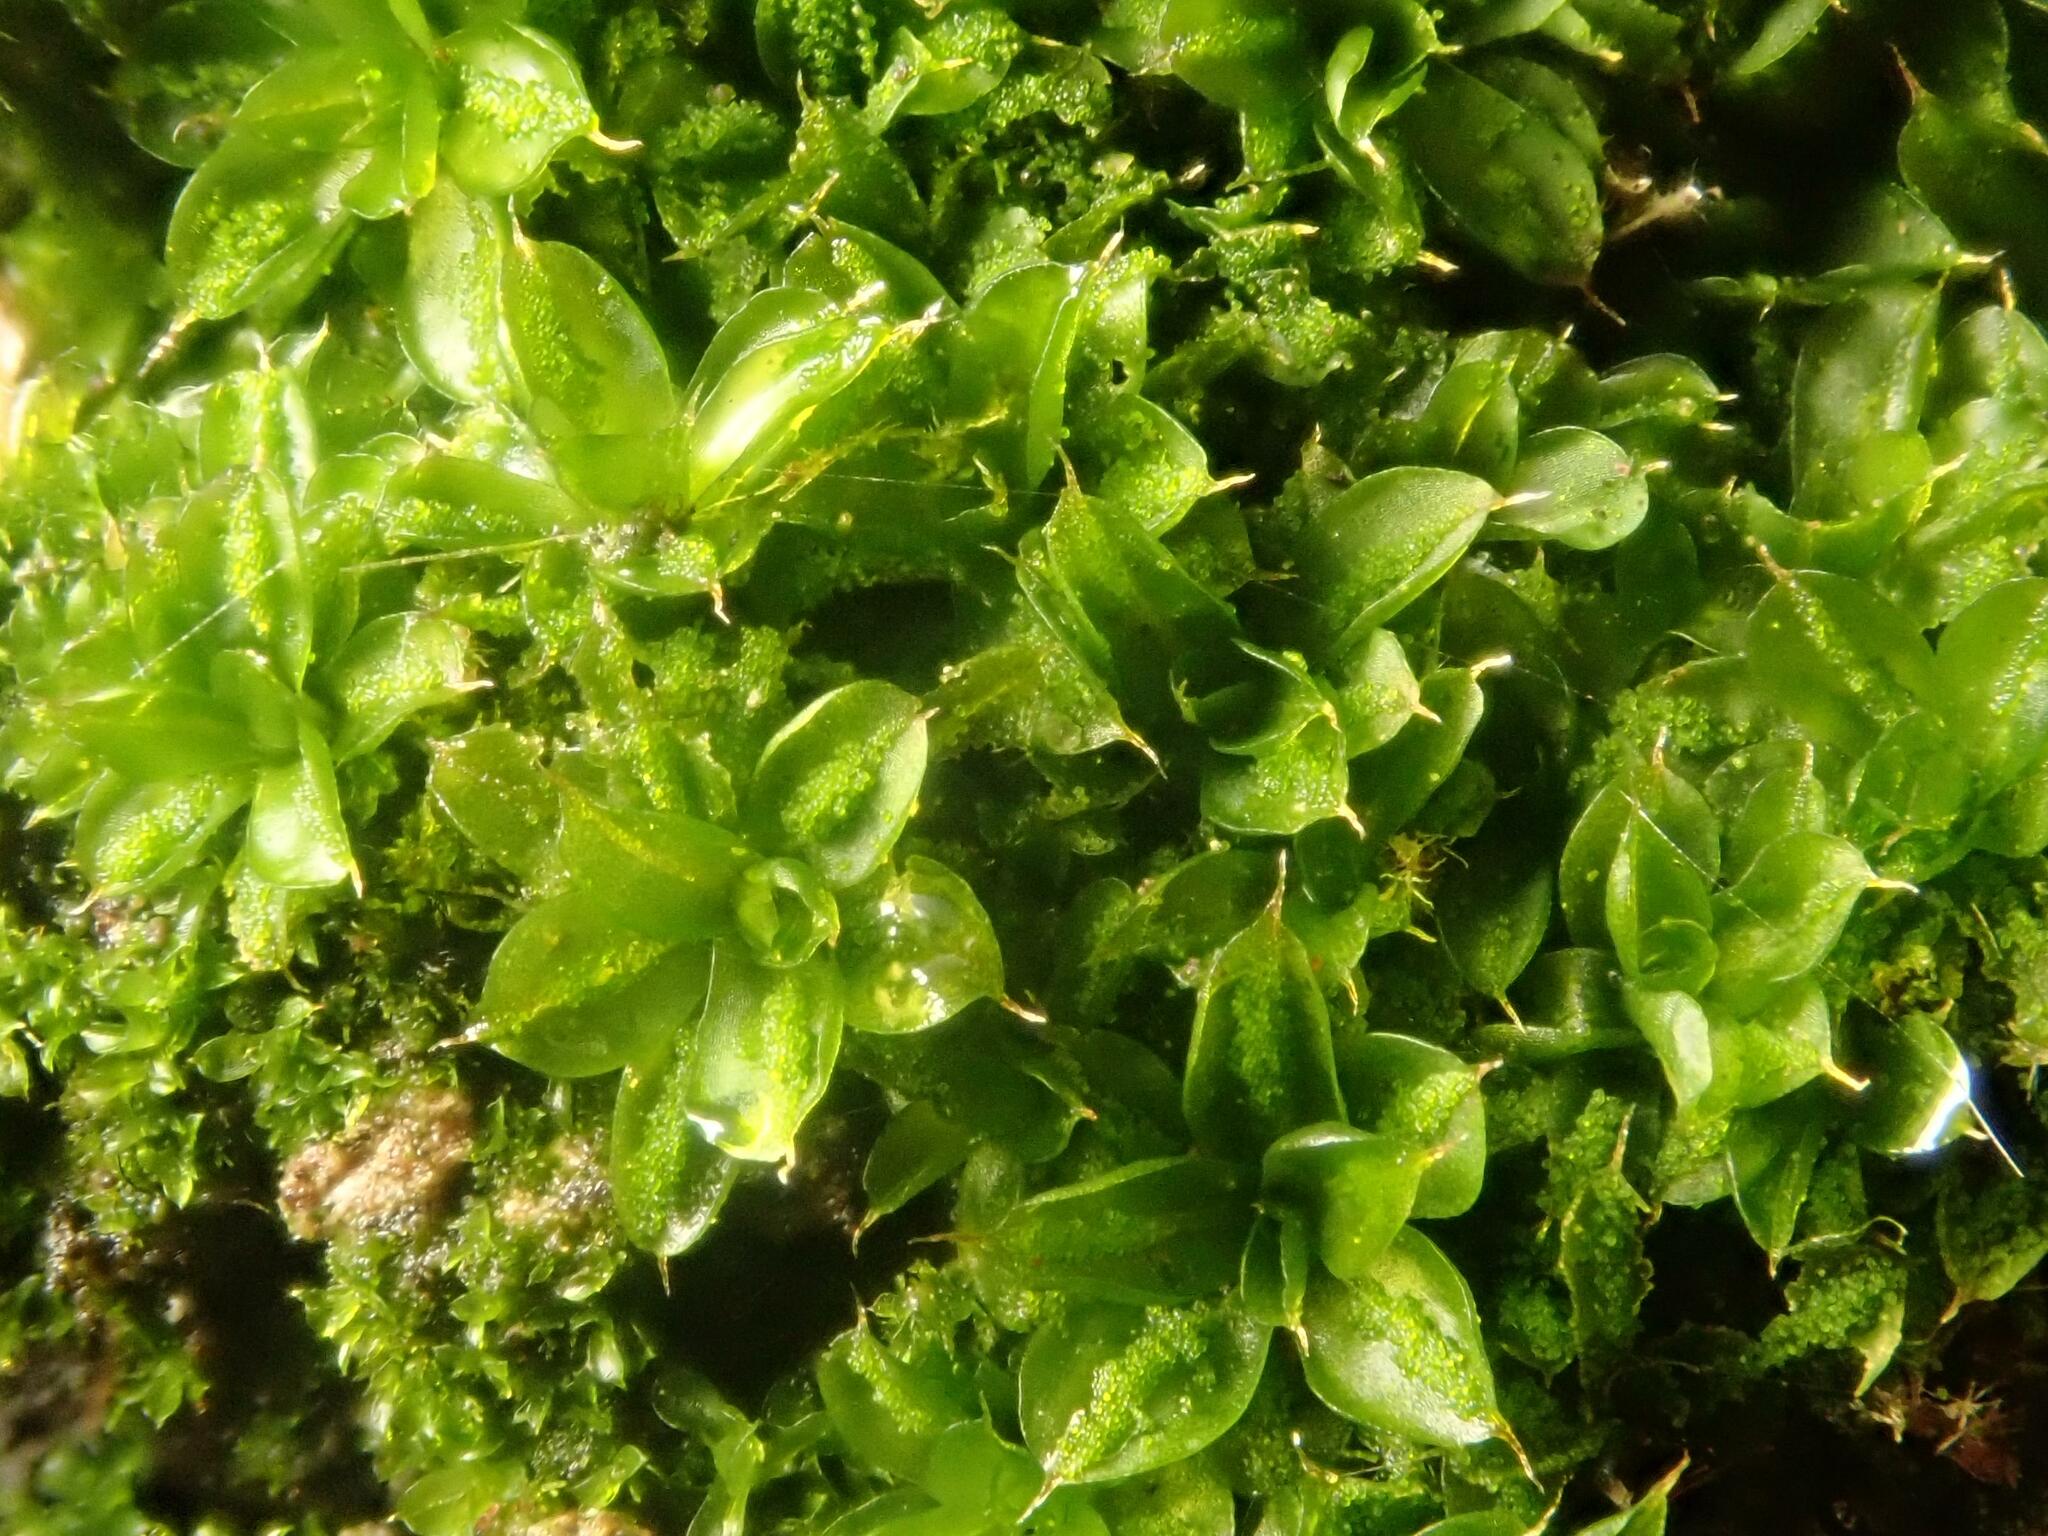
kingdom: Plantae
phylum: Bryophyta
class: Bryopsida
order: Pottiales
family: Pottiaceae
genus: Syntrichia
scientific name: Syntrichia papillosa
